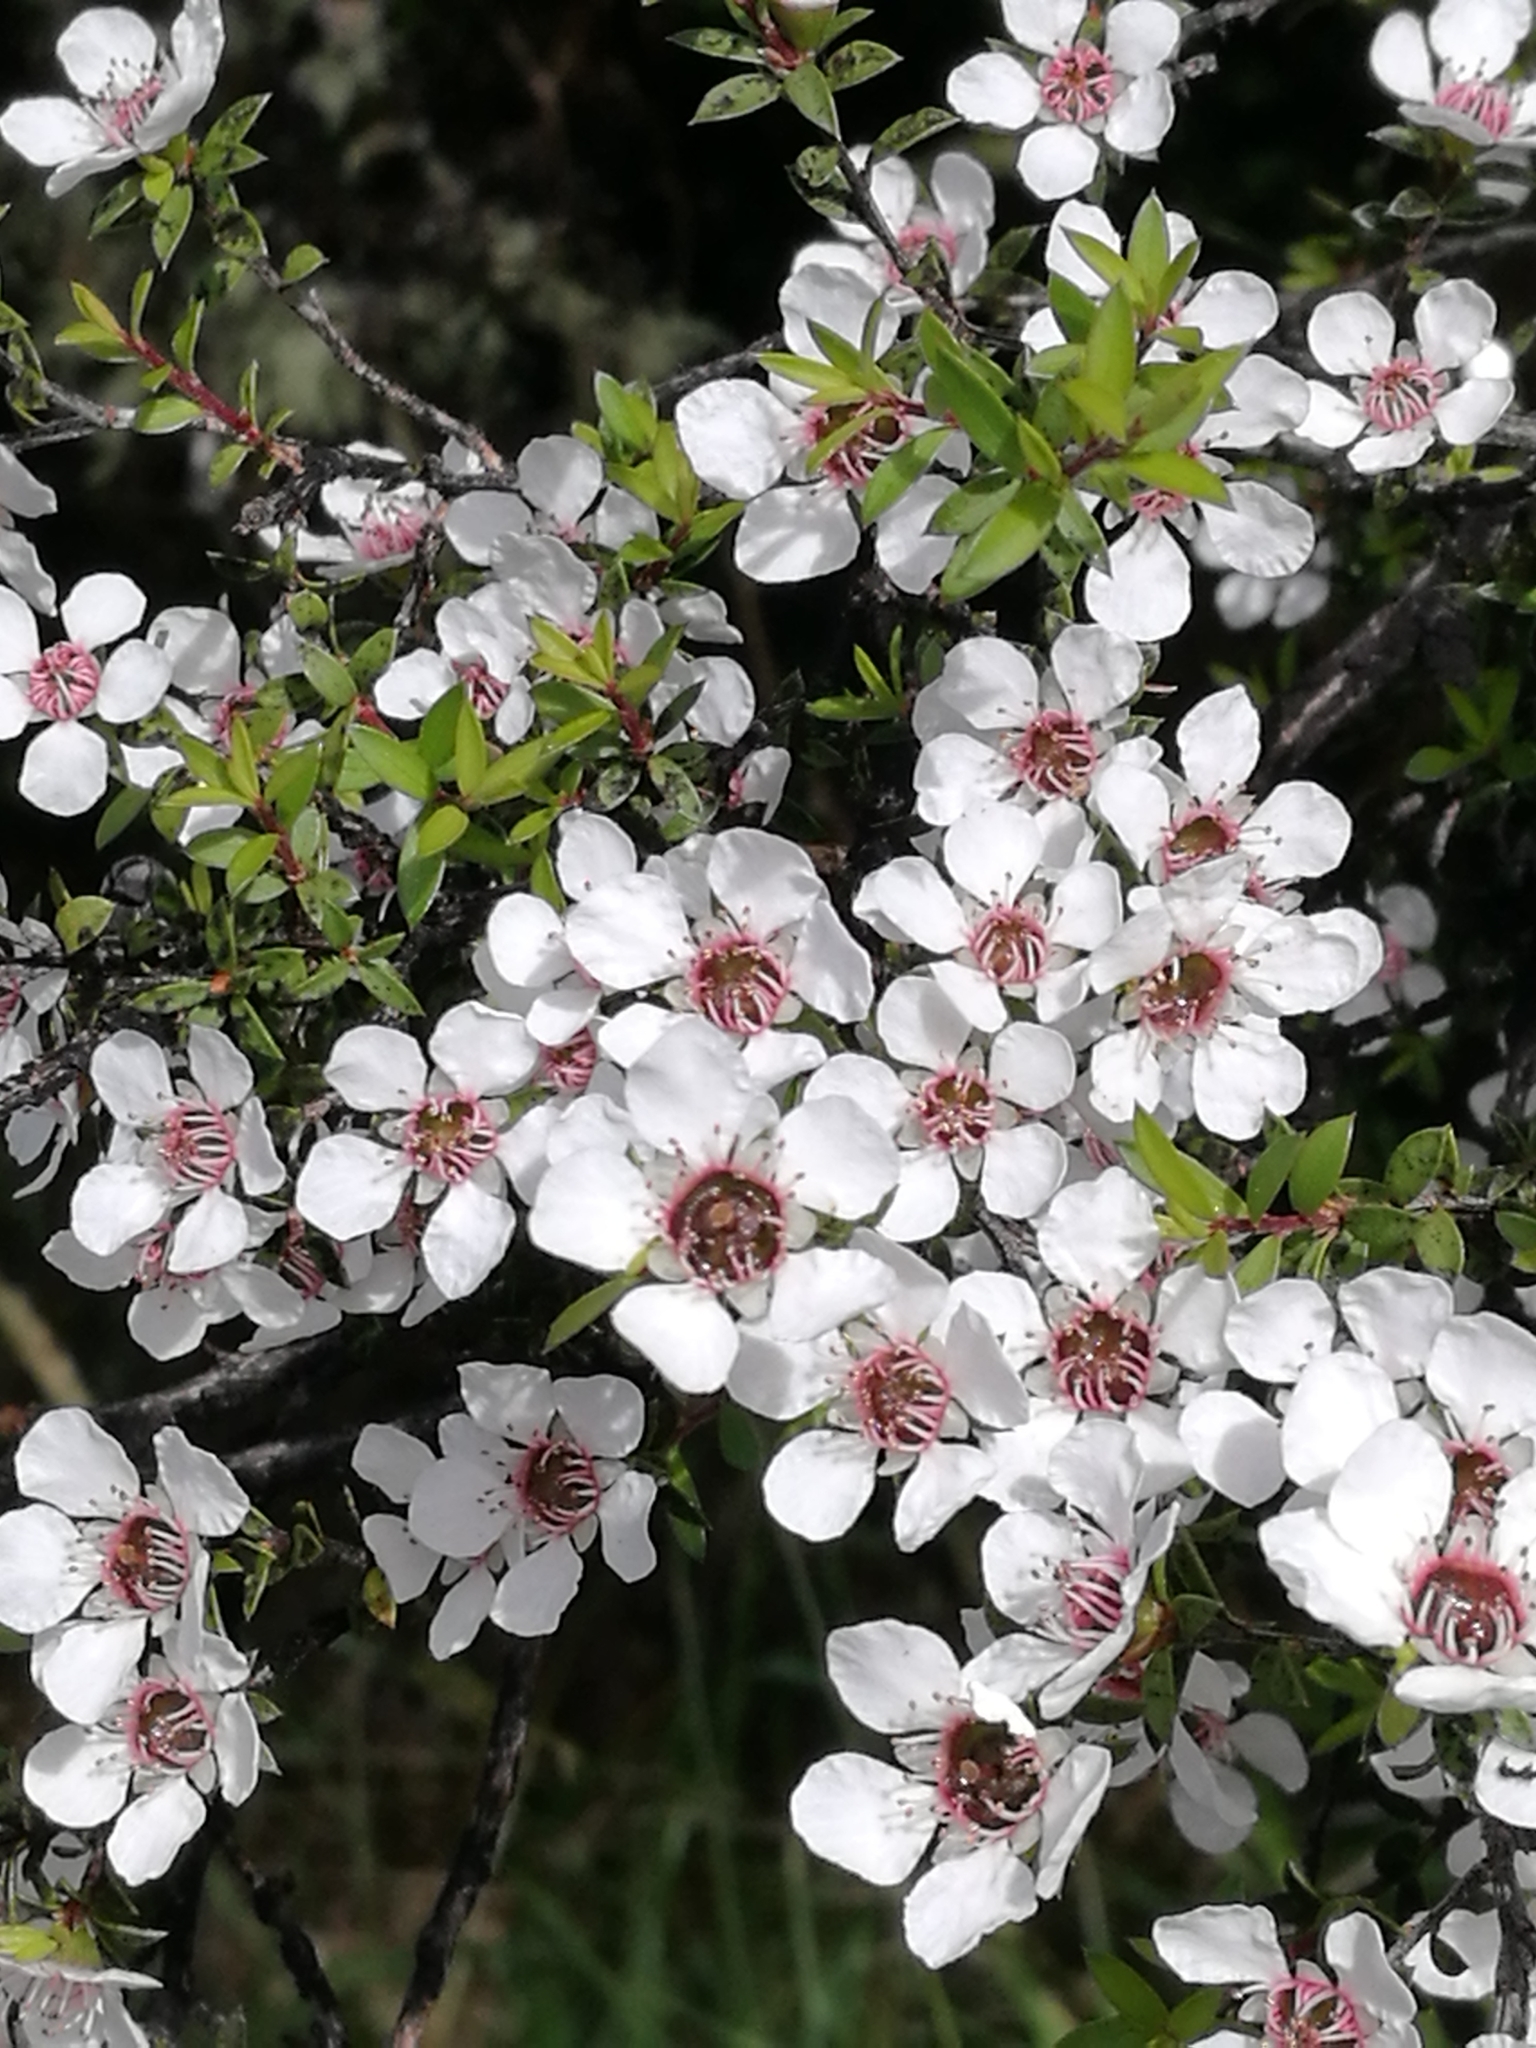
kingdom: Plantae
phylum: Tracheophyta
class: Magnoliopsida
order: Myrtales
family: Myrtaceae
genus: Leptospermum
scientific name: Leptospermum scoparium
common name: Broom tea-tree
